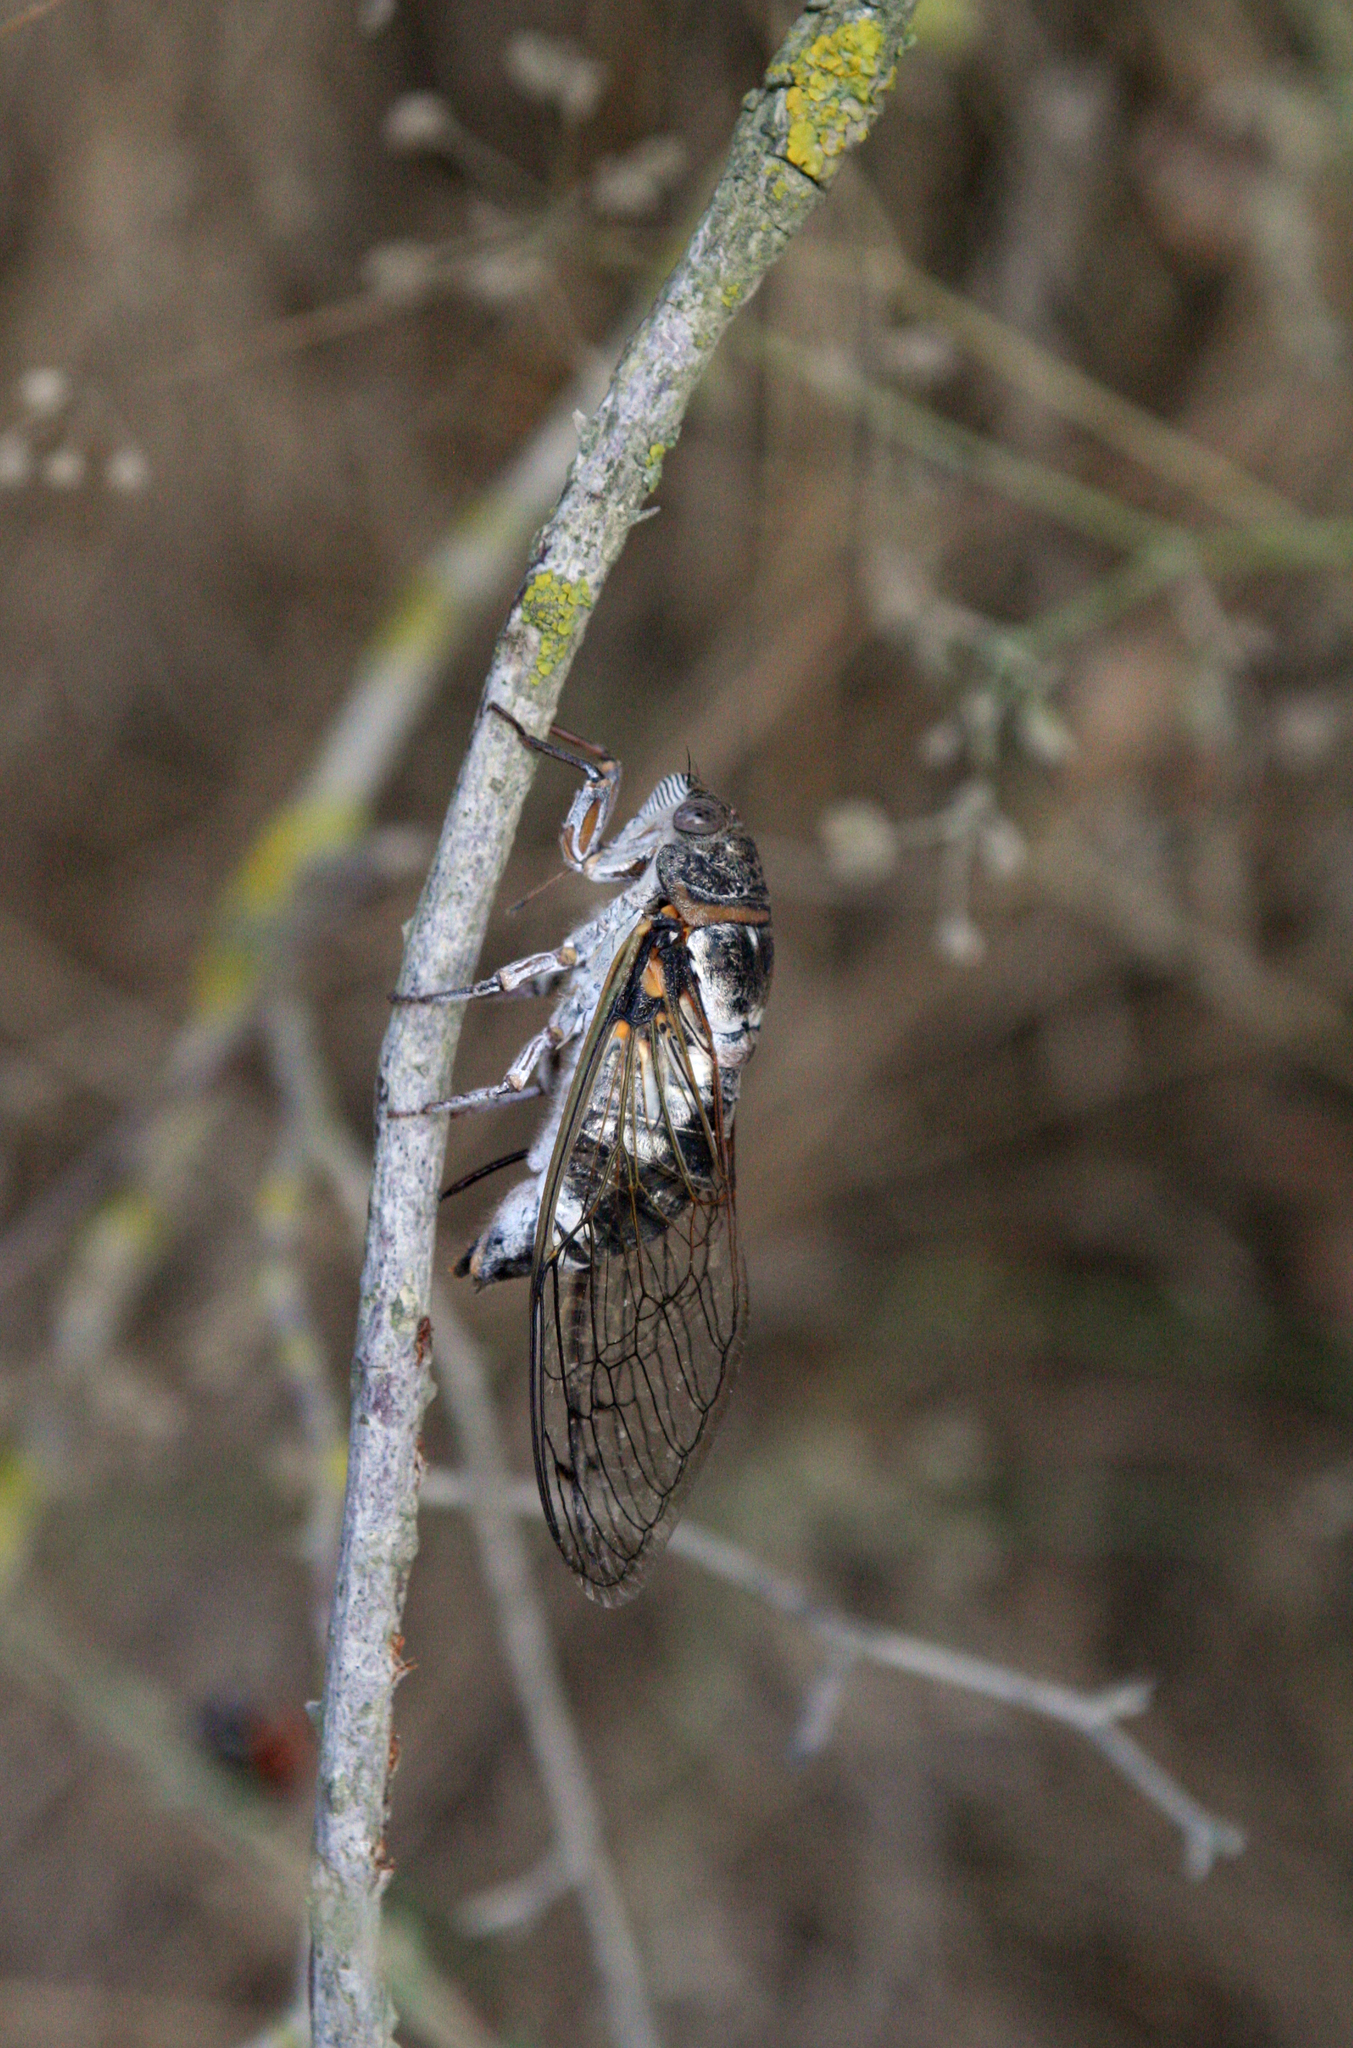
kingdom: Animalia
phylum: Arthropoda
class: Insecta
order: Hemiptera
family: Cicadidae
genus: Lyristes
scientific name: Lyristes plebejus
